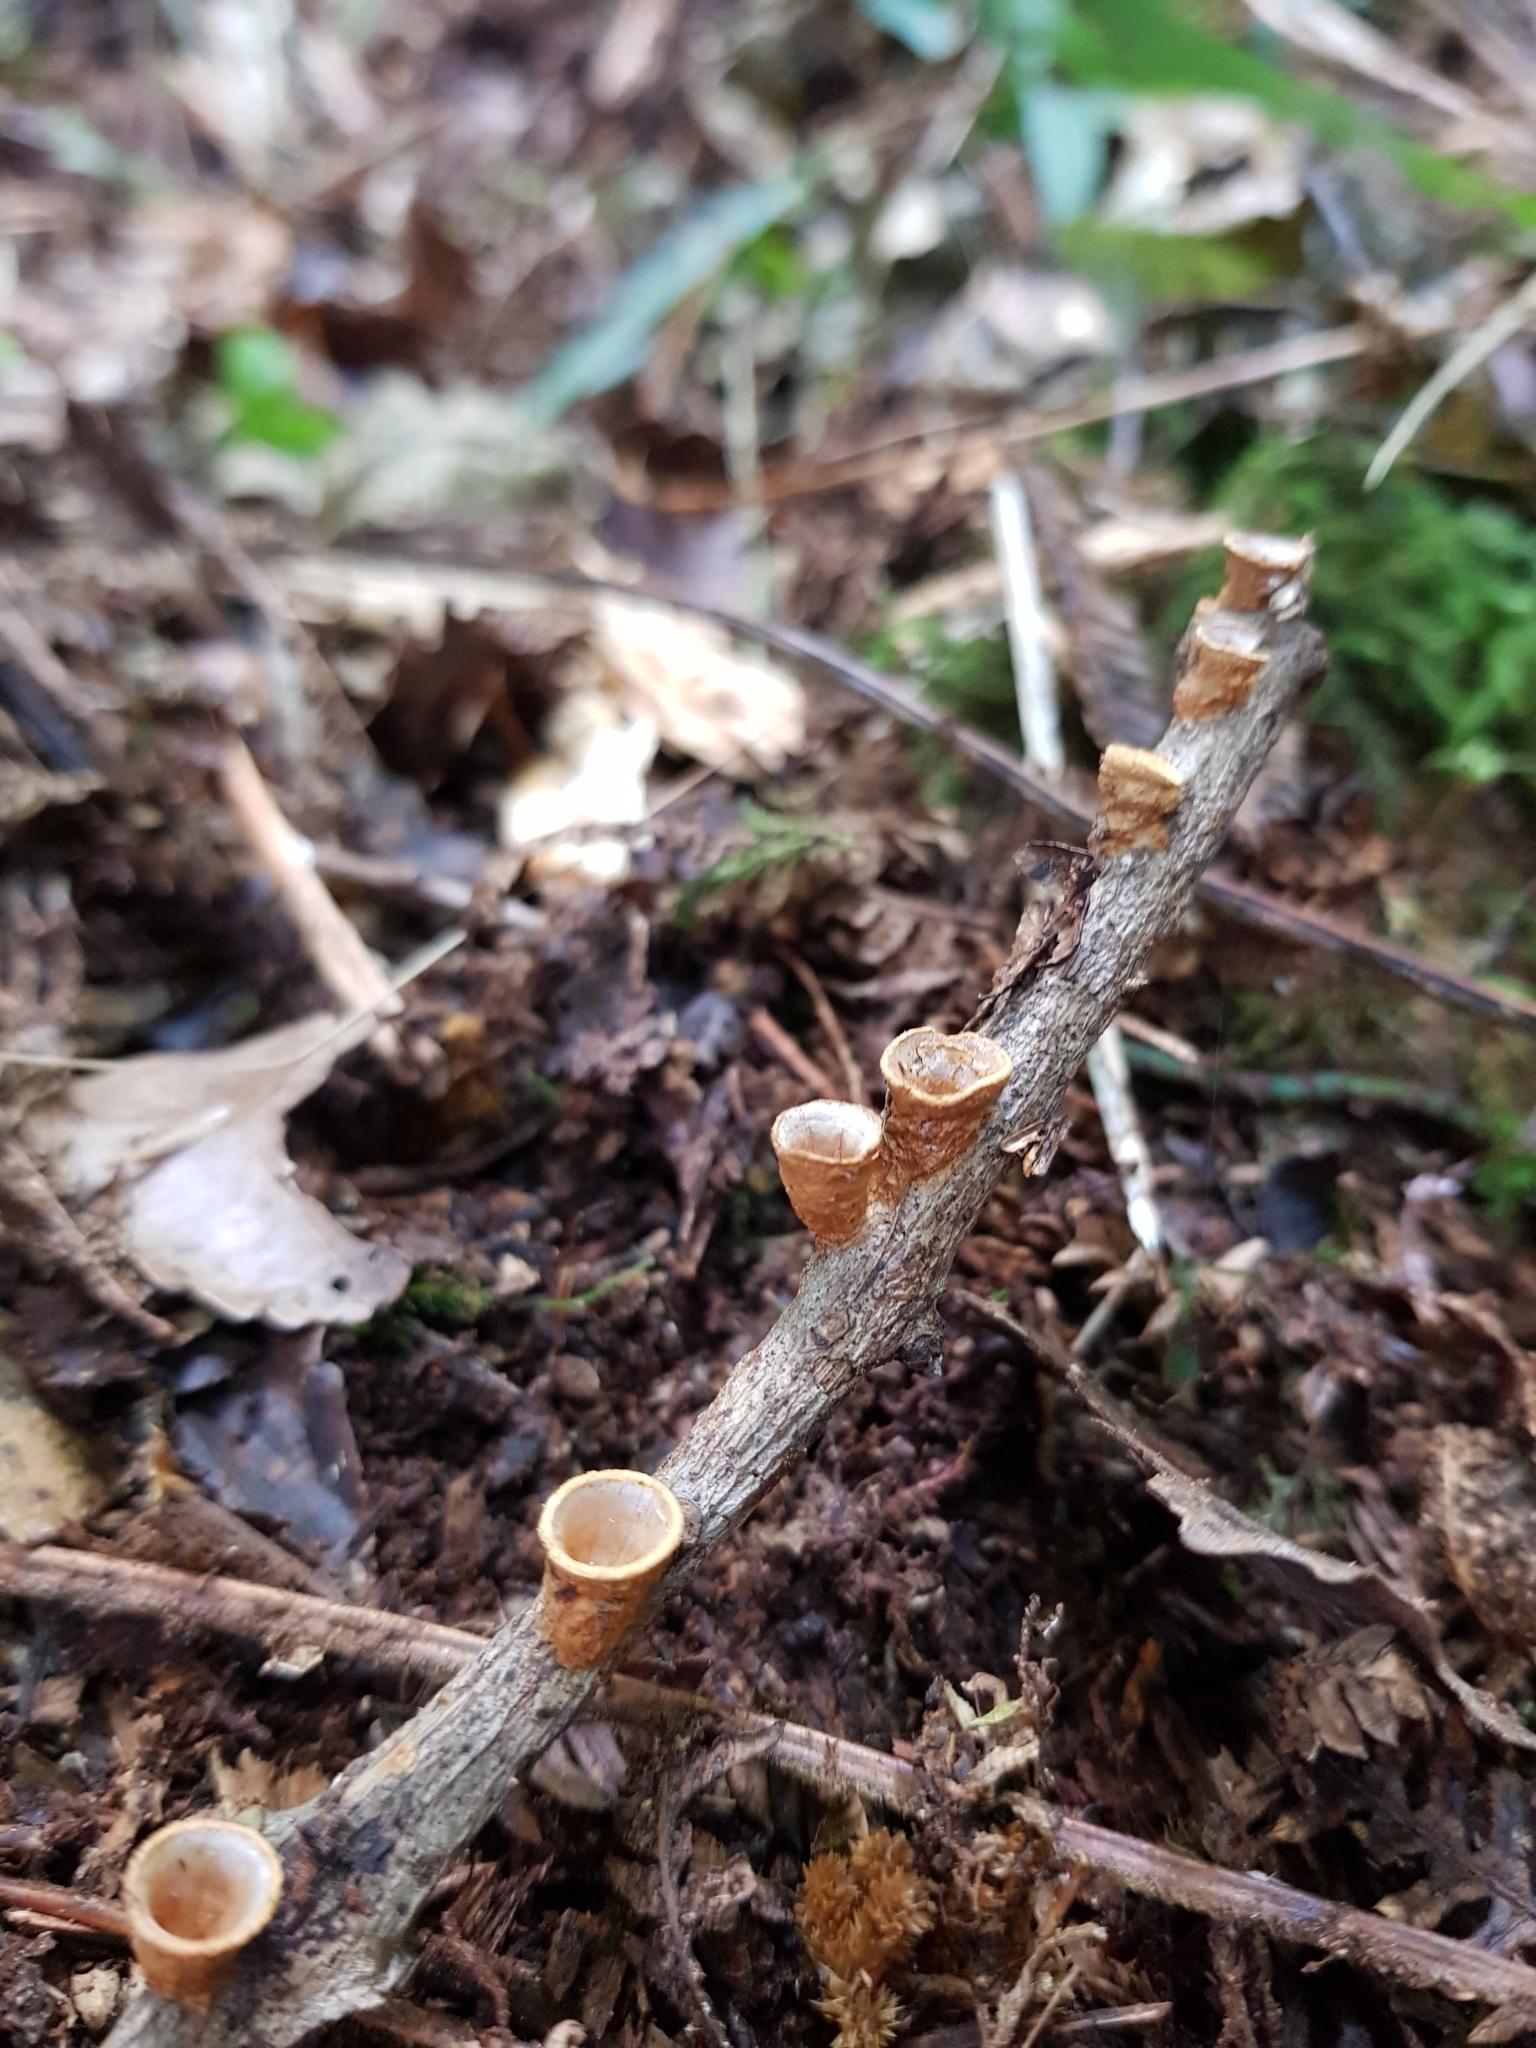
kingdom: Fungi
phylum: Basidiomycota
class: Agaricomycetes
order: Agaricales
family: Nidulariaceae
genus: Crucibulum
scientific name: Crucibulum laeve
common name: Common bird's nest
